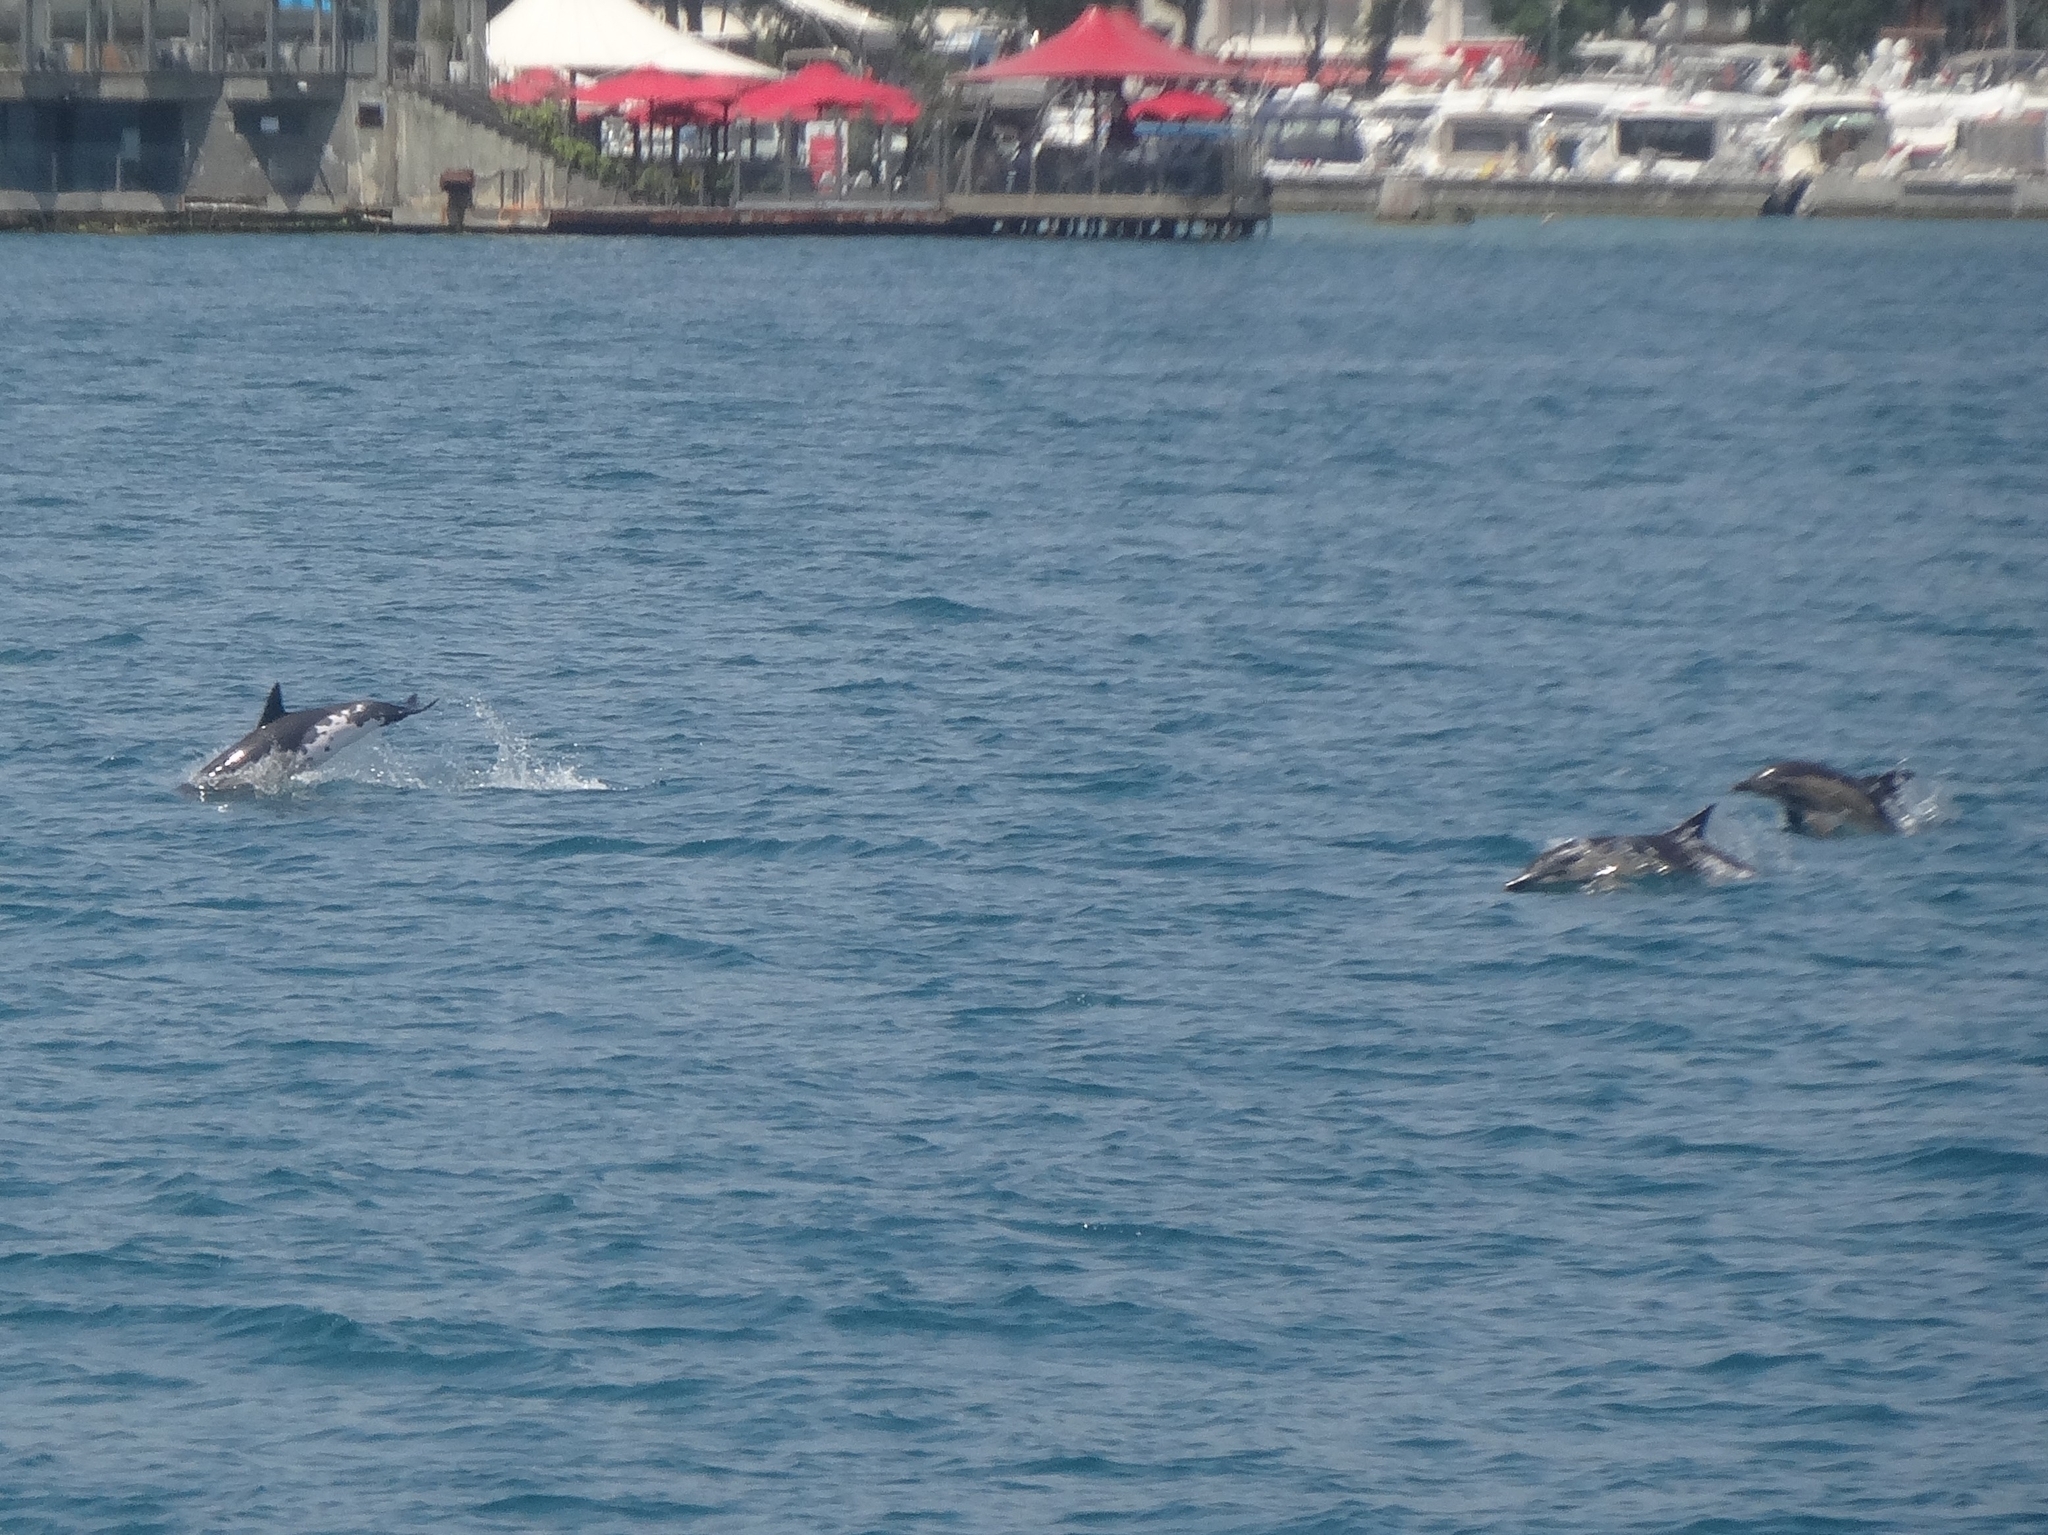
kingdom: Animalia
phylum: Chordata
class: Mammalia
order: Cetacea
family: Delphinidae
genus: Delphinus
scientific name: Delphinus delphis
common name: Common dolphin
